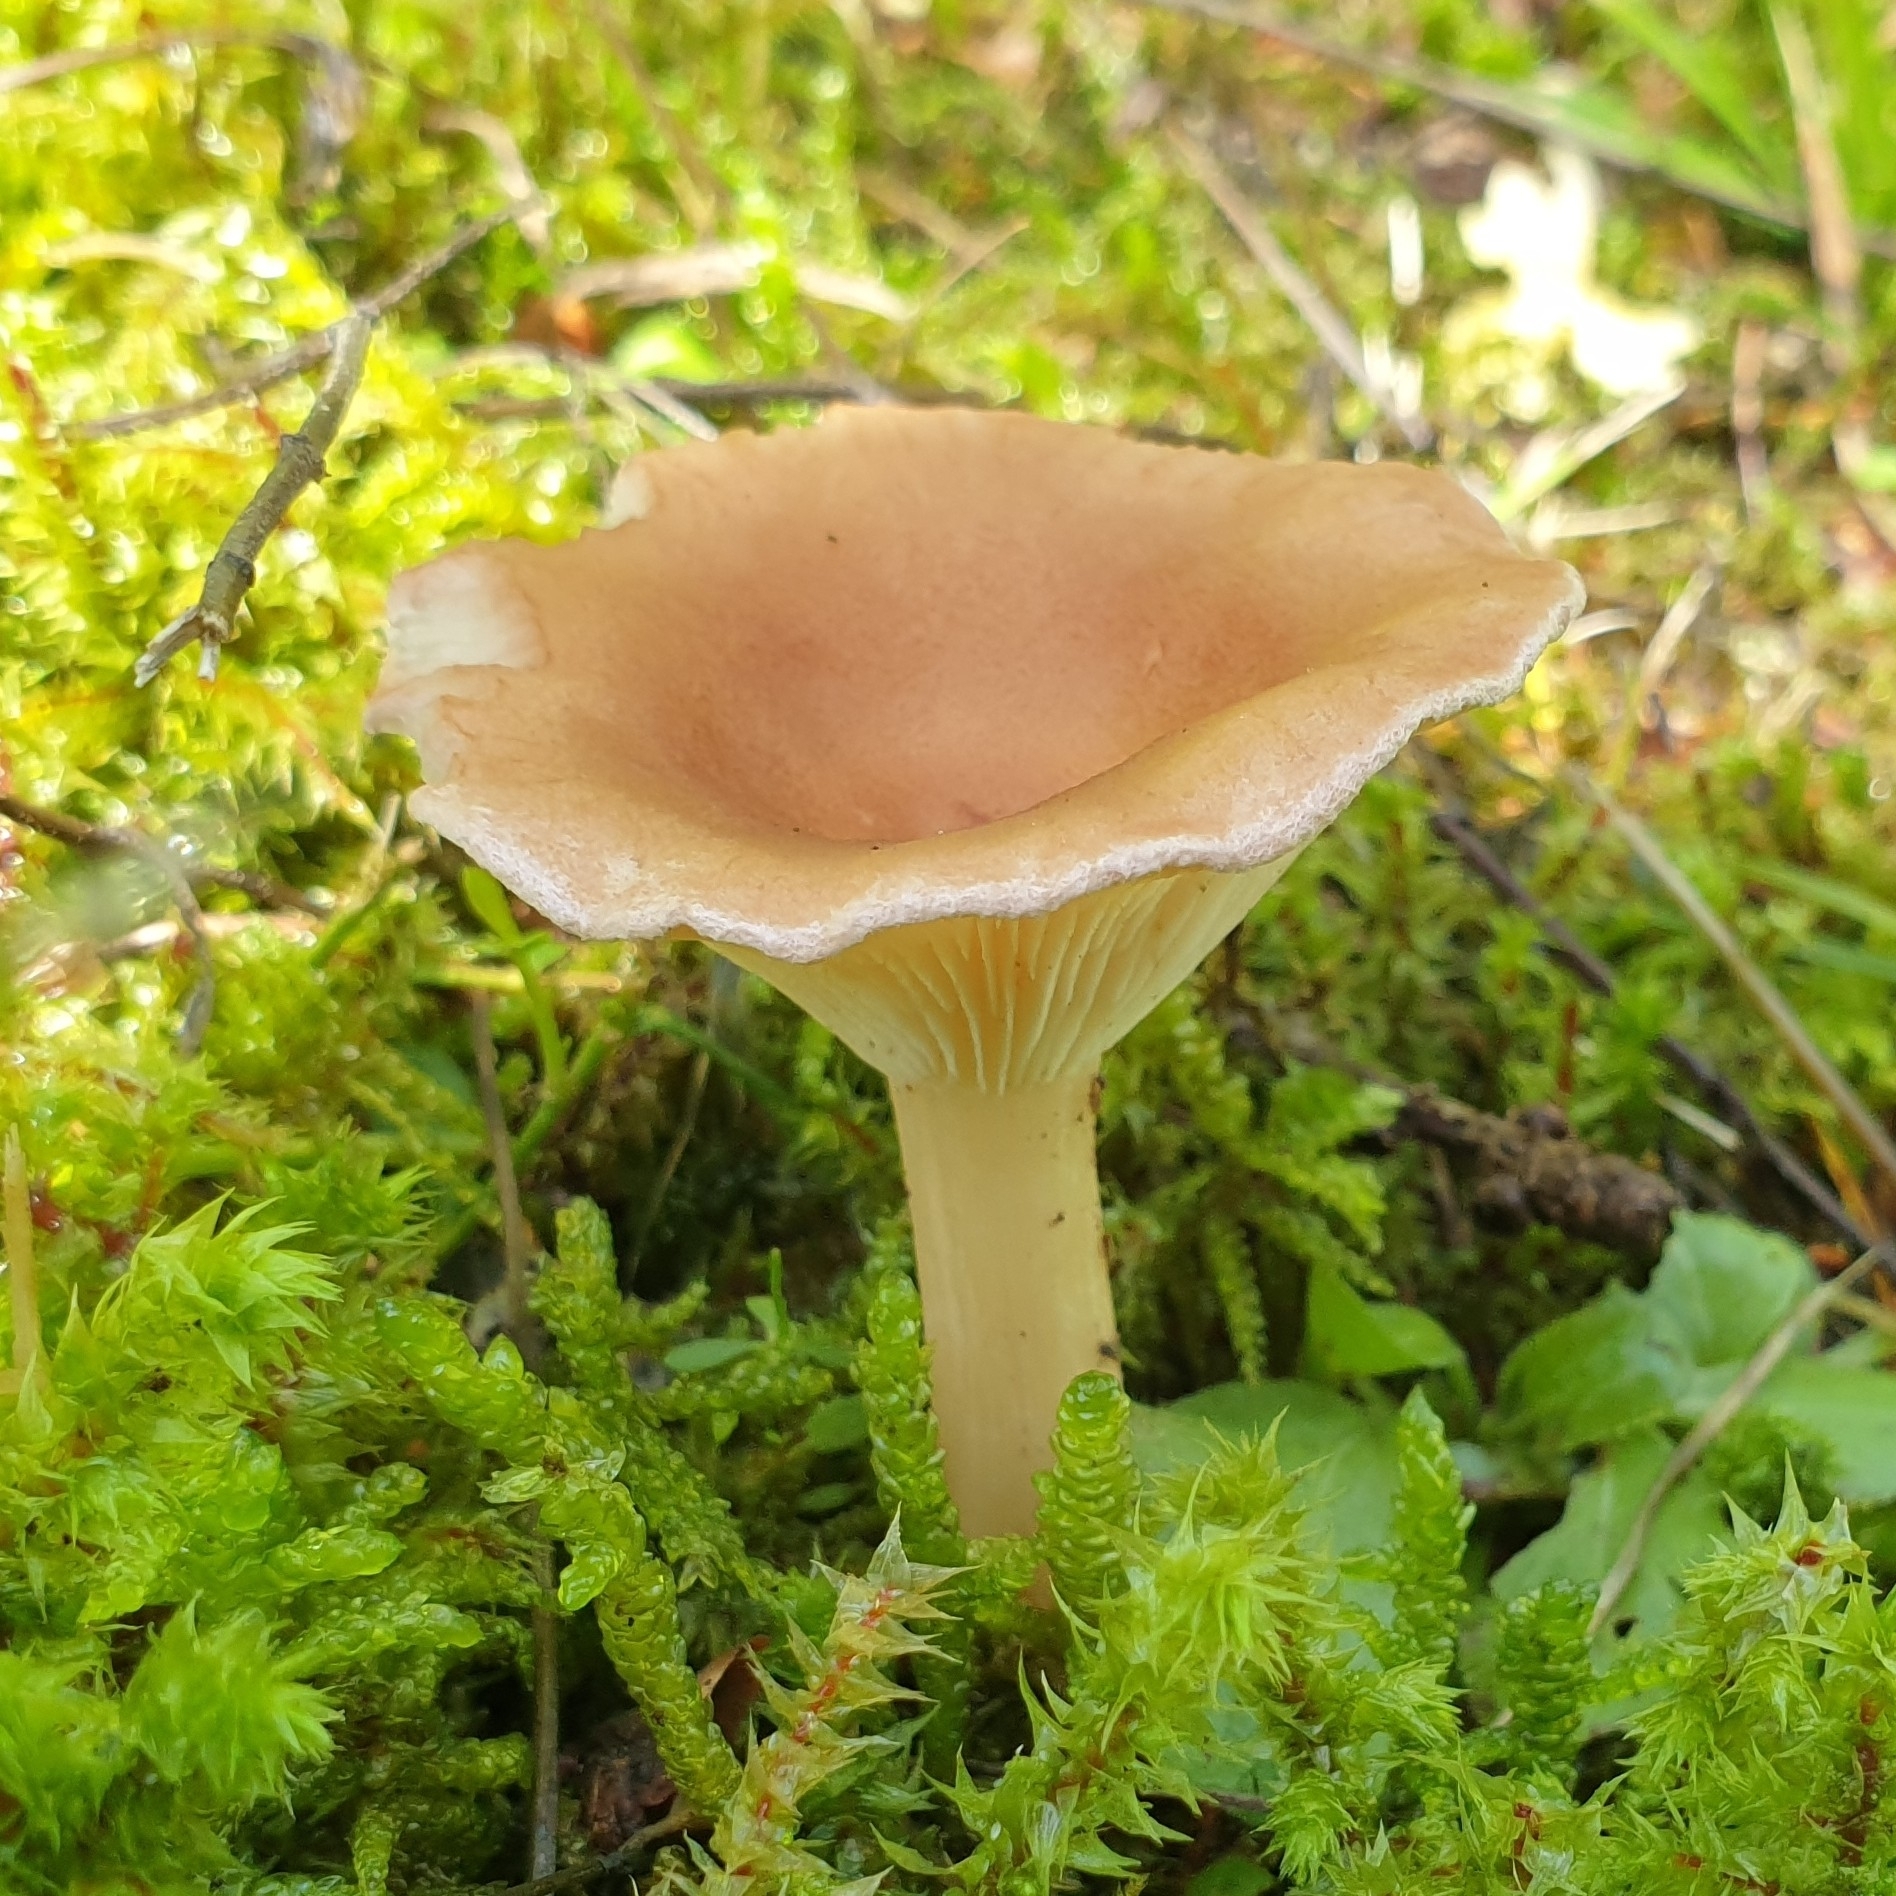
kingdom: Fungi
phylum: Basidiomycota
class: Agaricomycetes
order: Agaricales
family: Tricholomataceae
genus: Infundibulicybe
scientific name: Infundibulicybe gibba
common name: Common funnel
